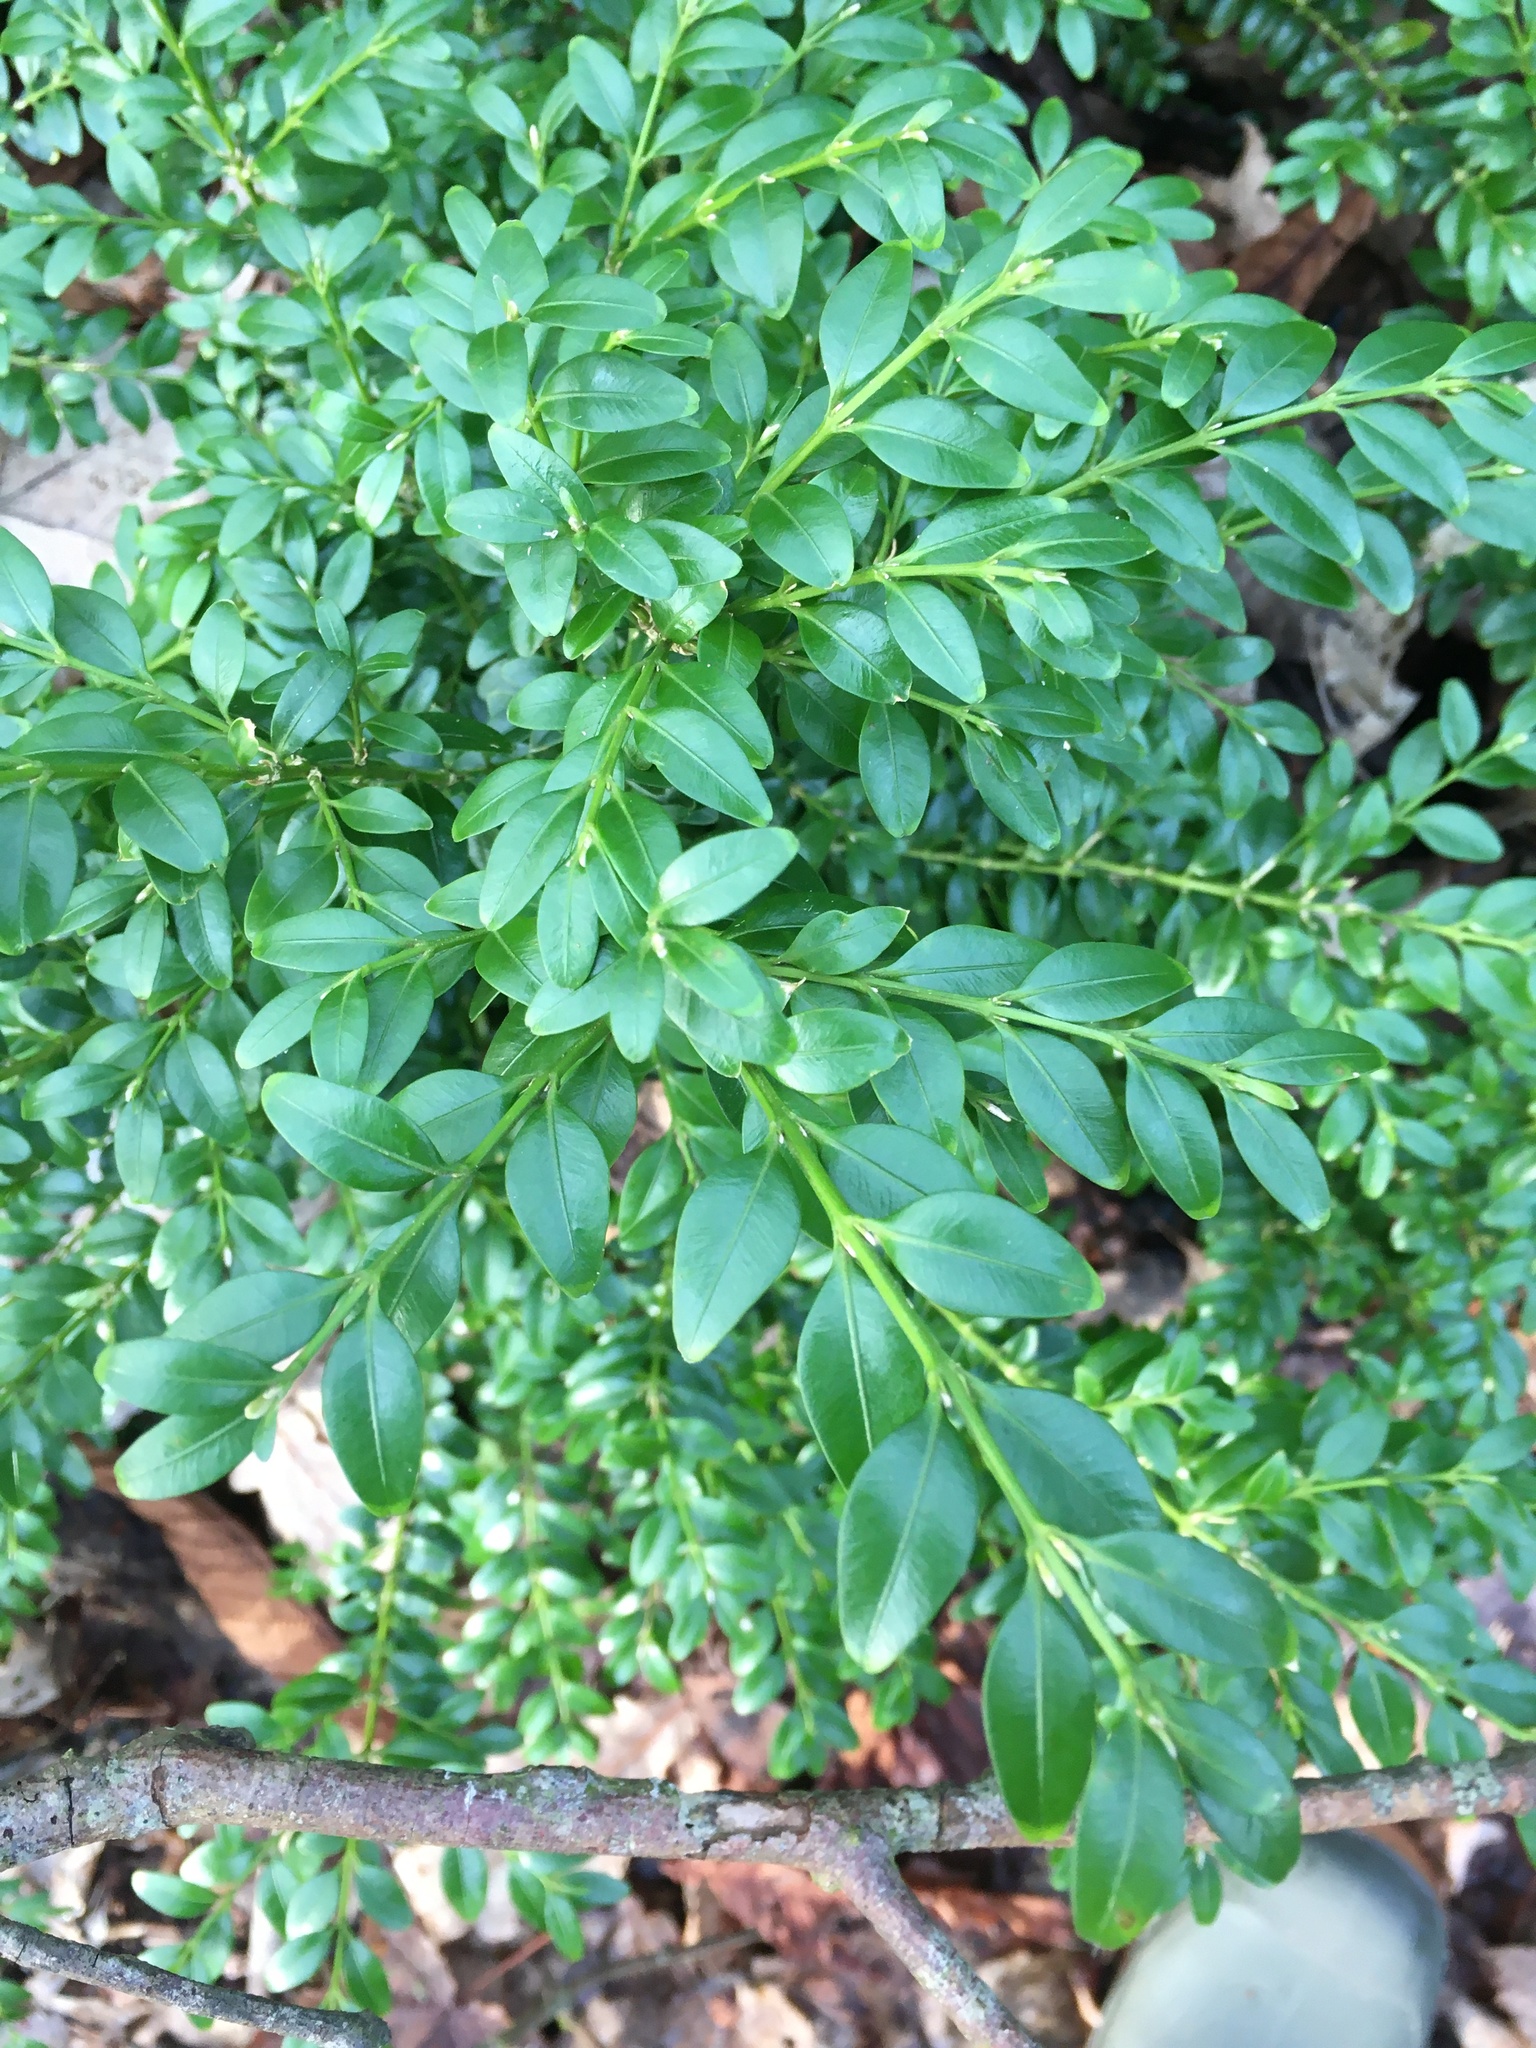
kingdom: Plantae
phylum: Tracheophyta
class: Magnoliopsida
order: Buxales
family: Buxaceae
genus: Buxus
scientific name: Buxus sempervirens
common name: Box
